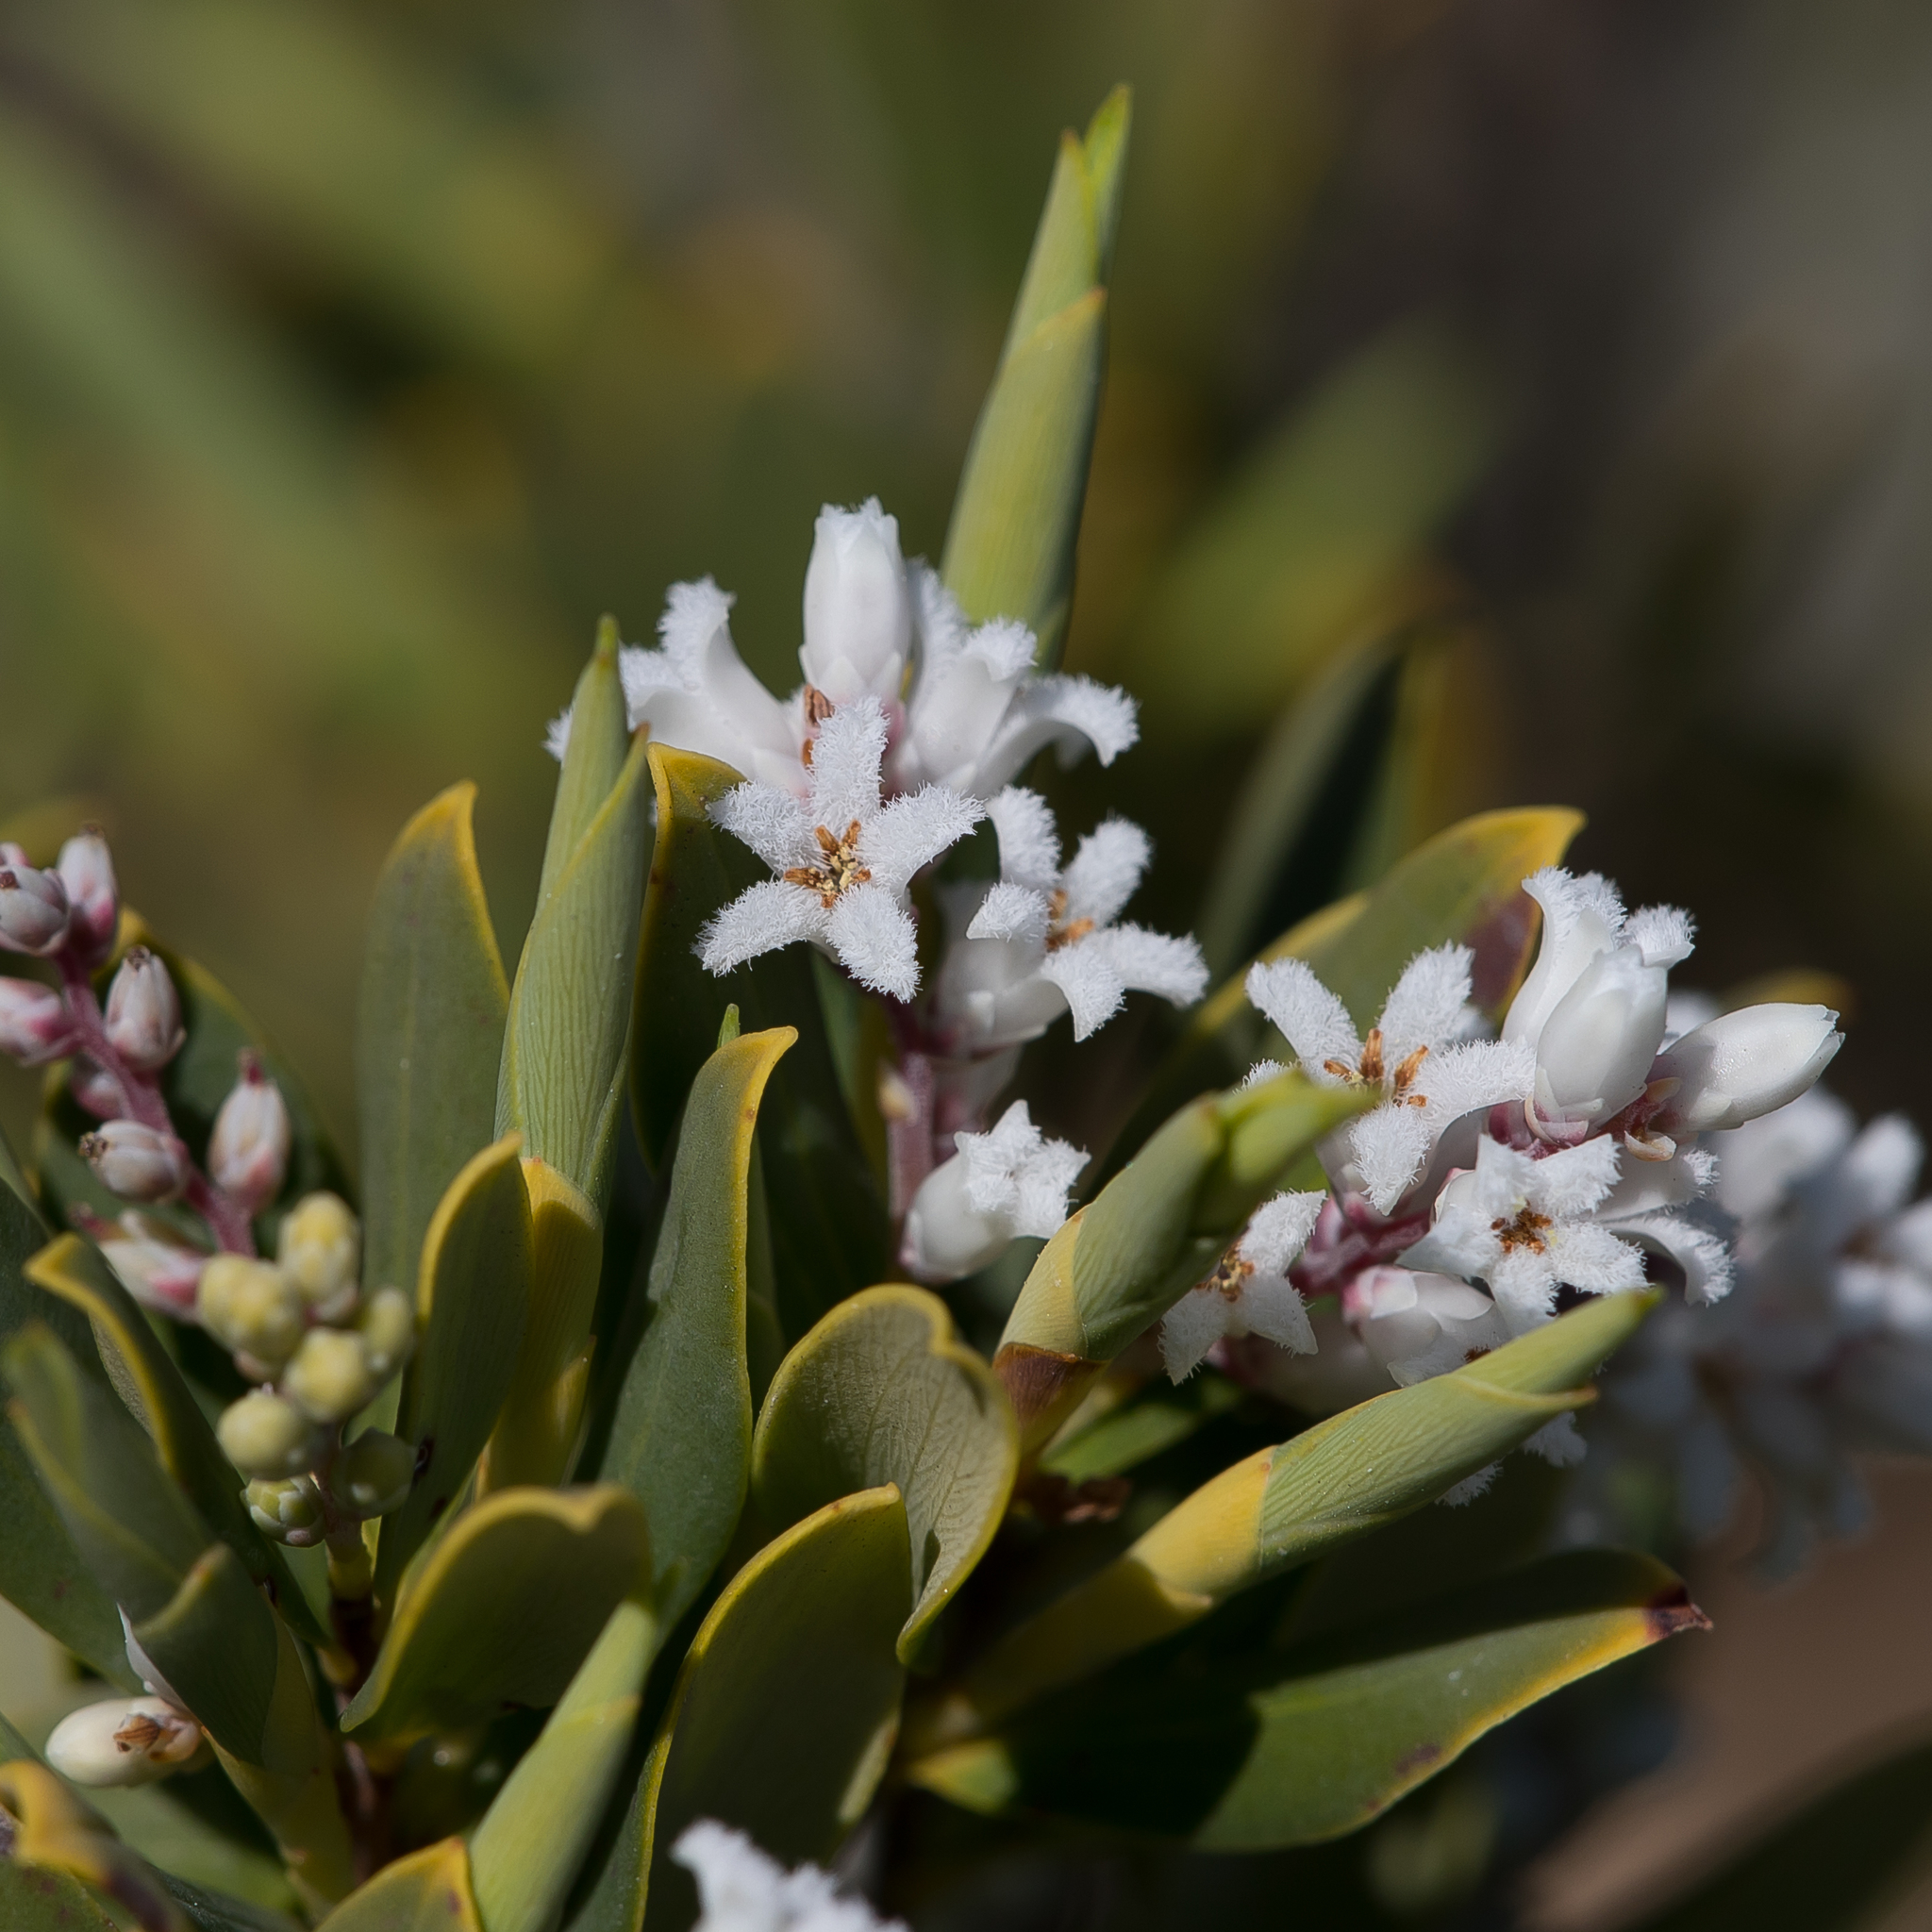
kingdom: Plantae
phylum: Tracheophyta
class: Magnoliopsida
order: Ericales
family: Ericaceae
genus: Leptecophylla
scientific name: Leptecophylla parvifolia
